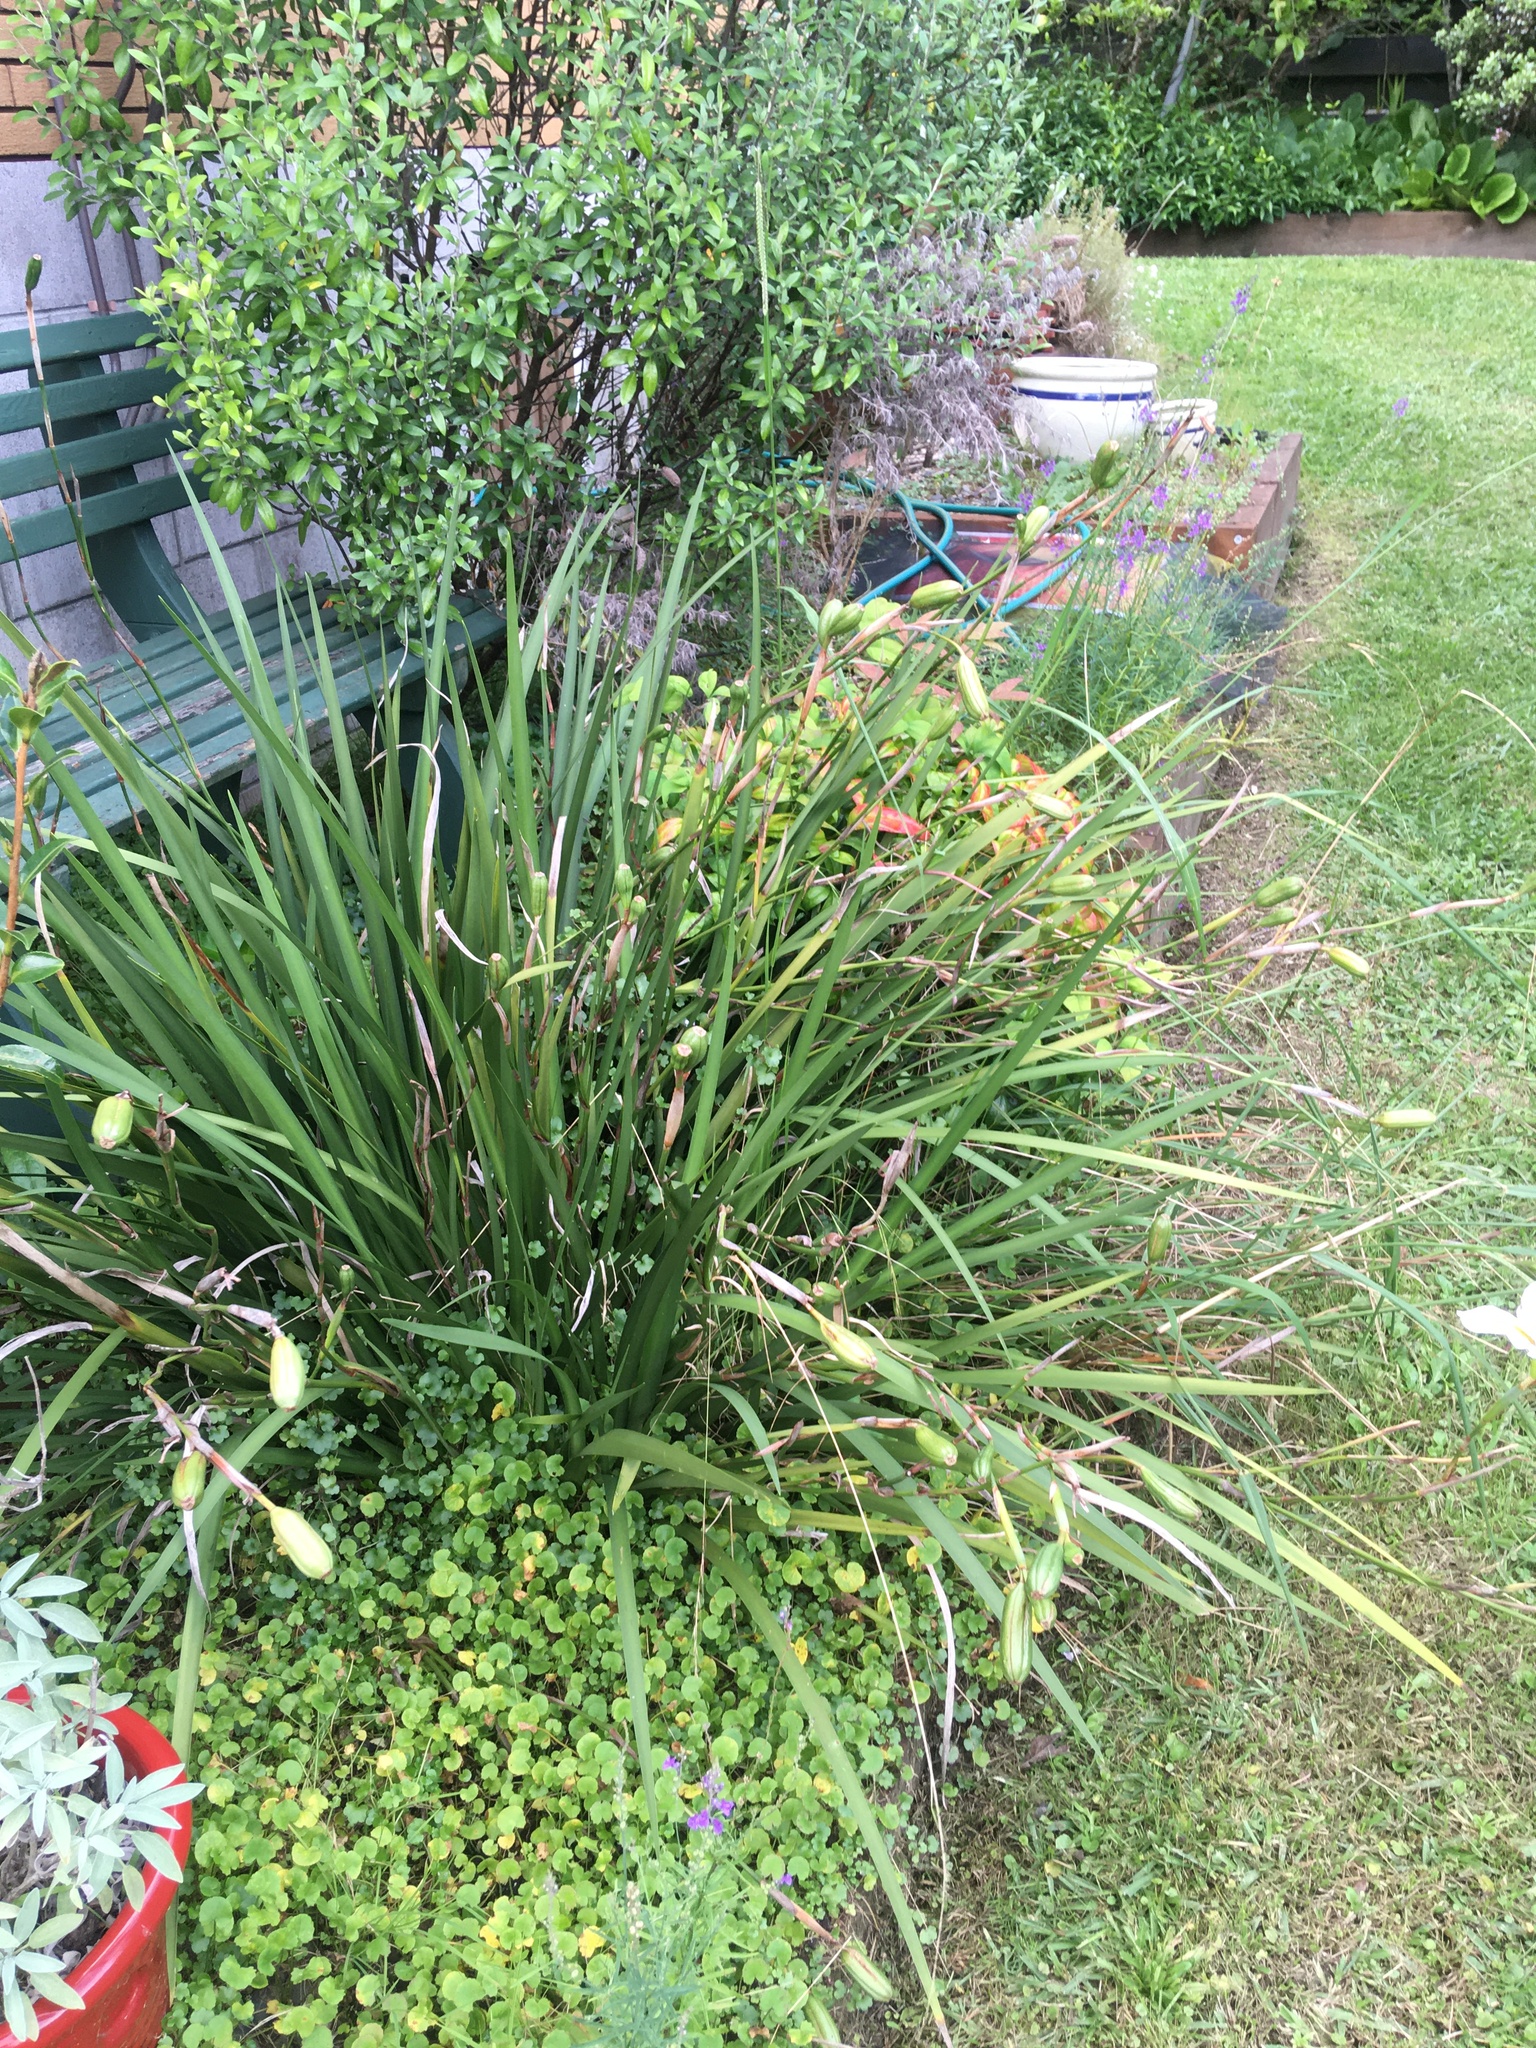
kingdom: Plantae
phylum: Tracheophyta
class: Liliopsida
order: Asparagales
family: Iridaceae
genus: Iris
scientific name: Iris foetidissima
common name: Stinking iris
